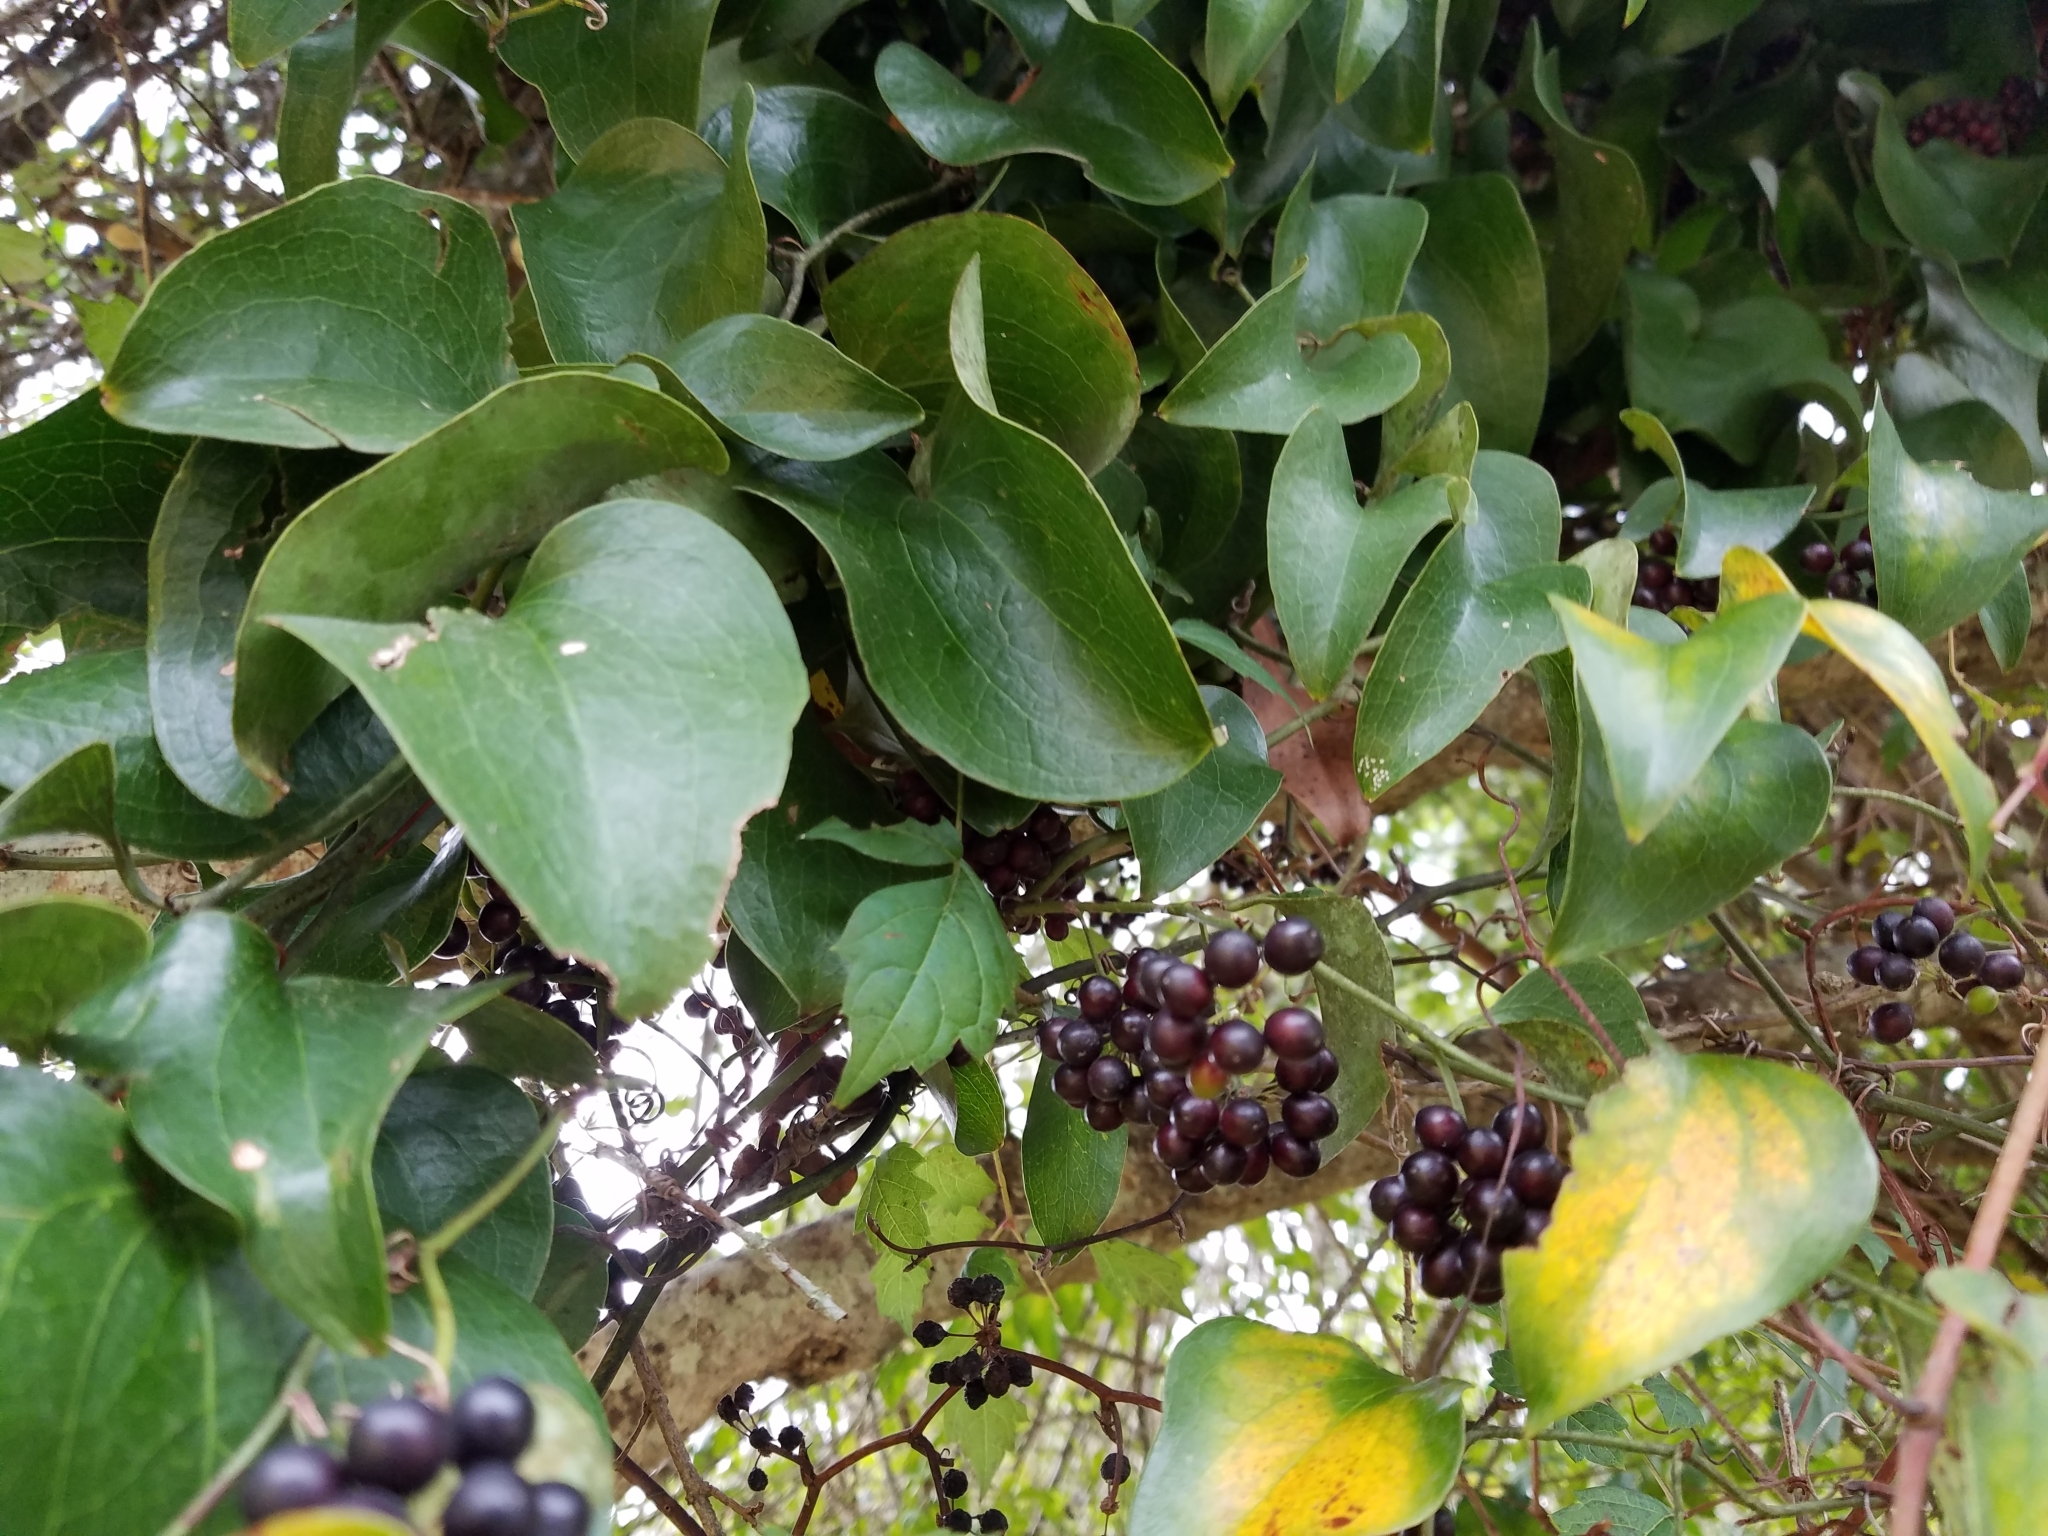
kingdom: Plantae
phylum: Tracheophyta
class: Liliopsida
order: Liliales
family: Smilacaceae
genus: Smilax
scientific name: Smilax bona-nox
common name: Catbrier
